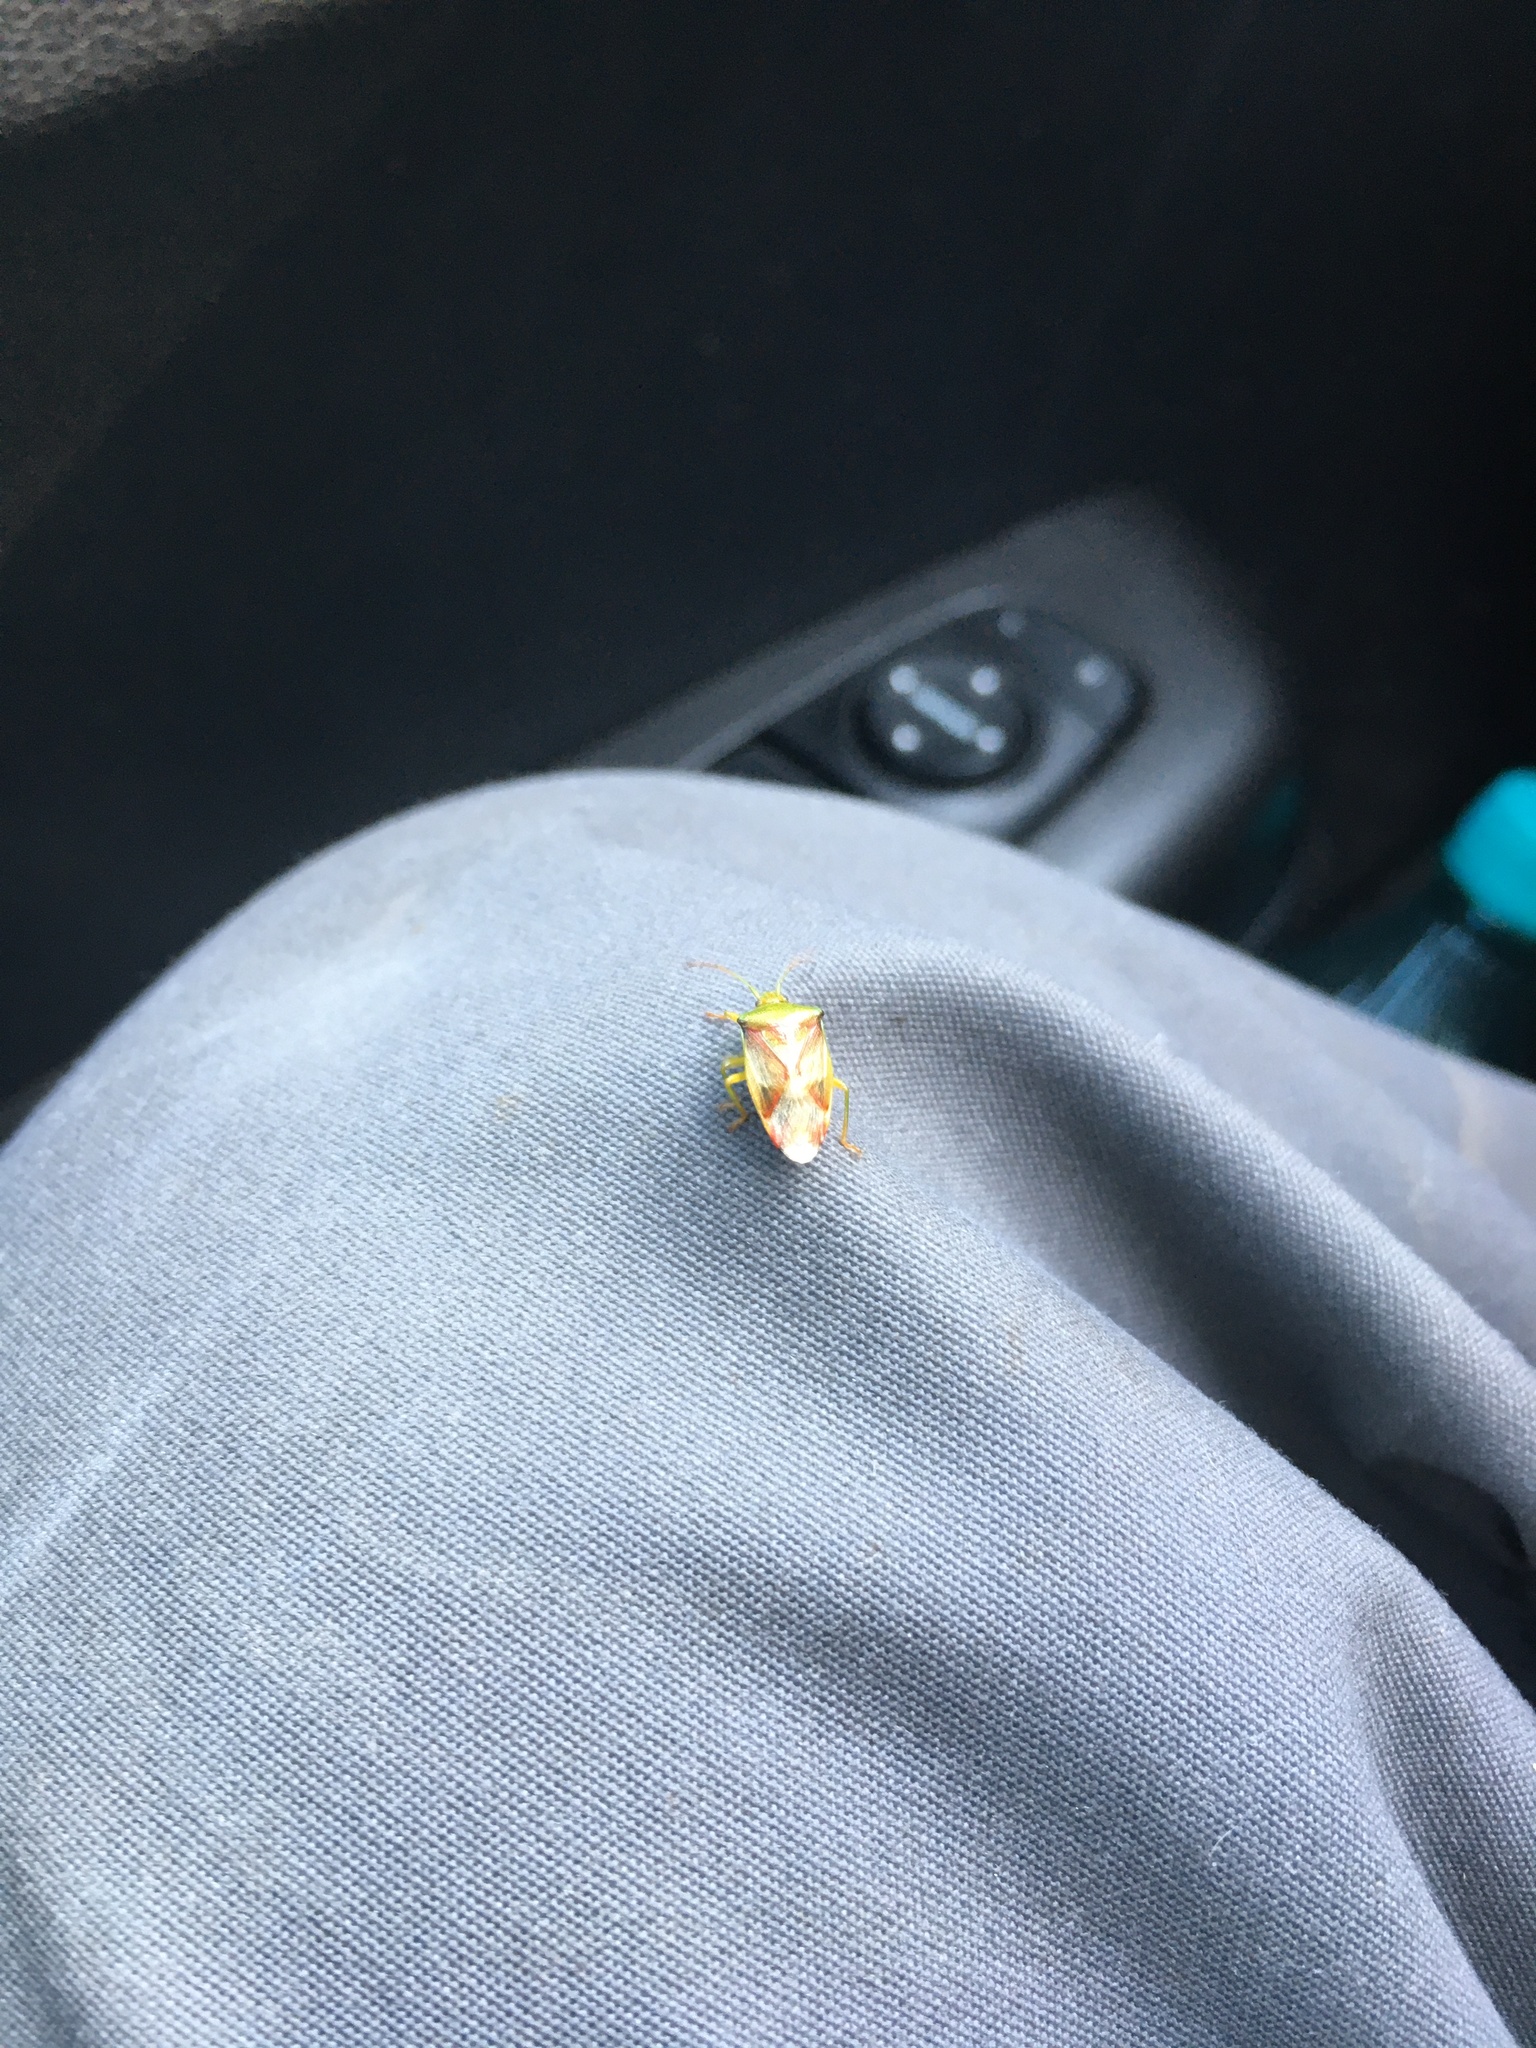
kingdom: Animalia
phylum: Arthropoda
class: Insecta
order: Hemiptera
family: Acanthosomatidae
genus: Elasmostethus
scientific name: Elasmostethus
